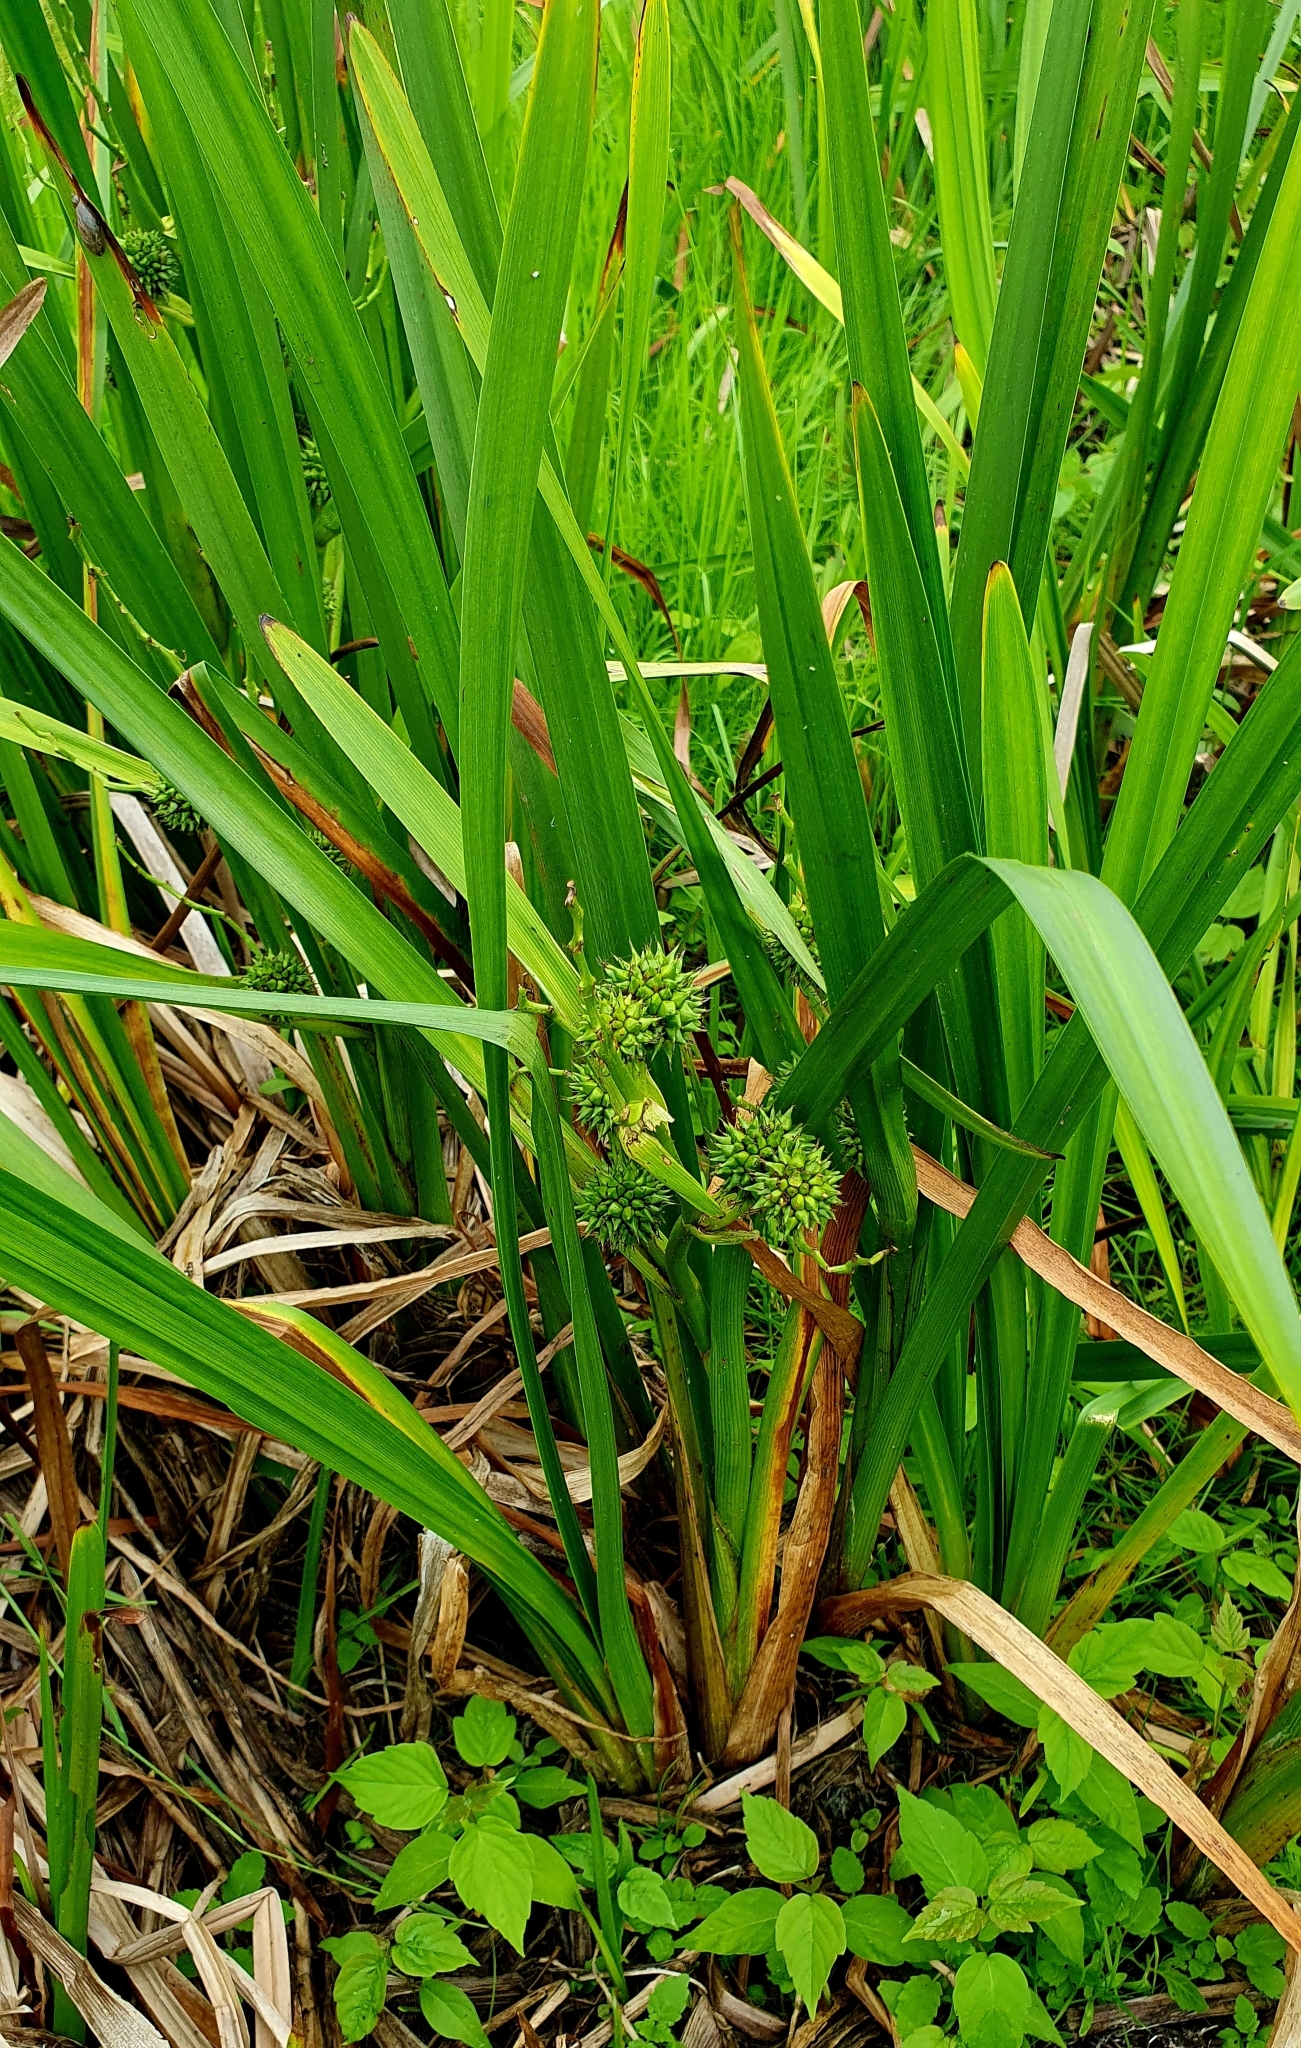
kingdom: Plantae
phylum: Tracheophyta
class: Liliopsida
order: Poales
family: Typhaceae
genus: Sparganium
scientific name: Sparganium erectum
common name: Branched bur-reed
